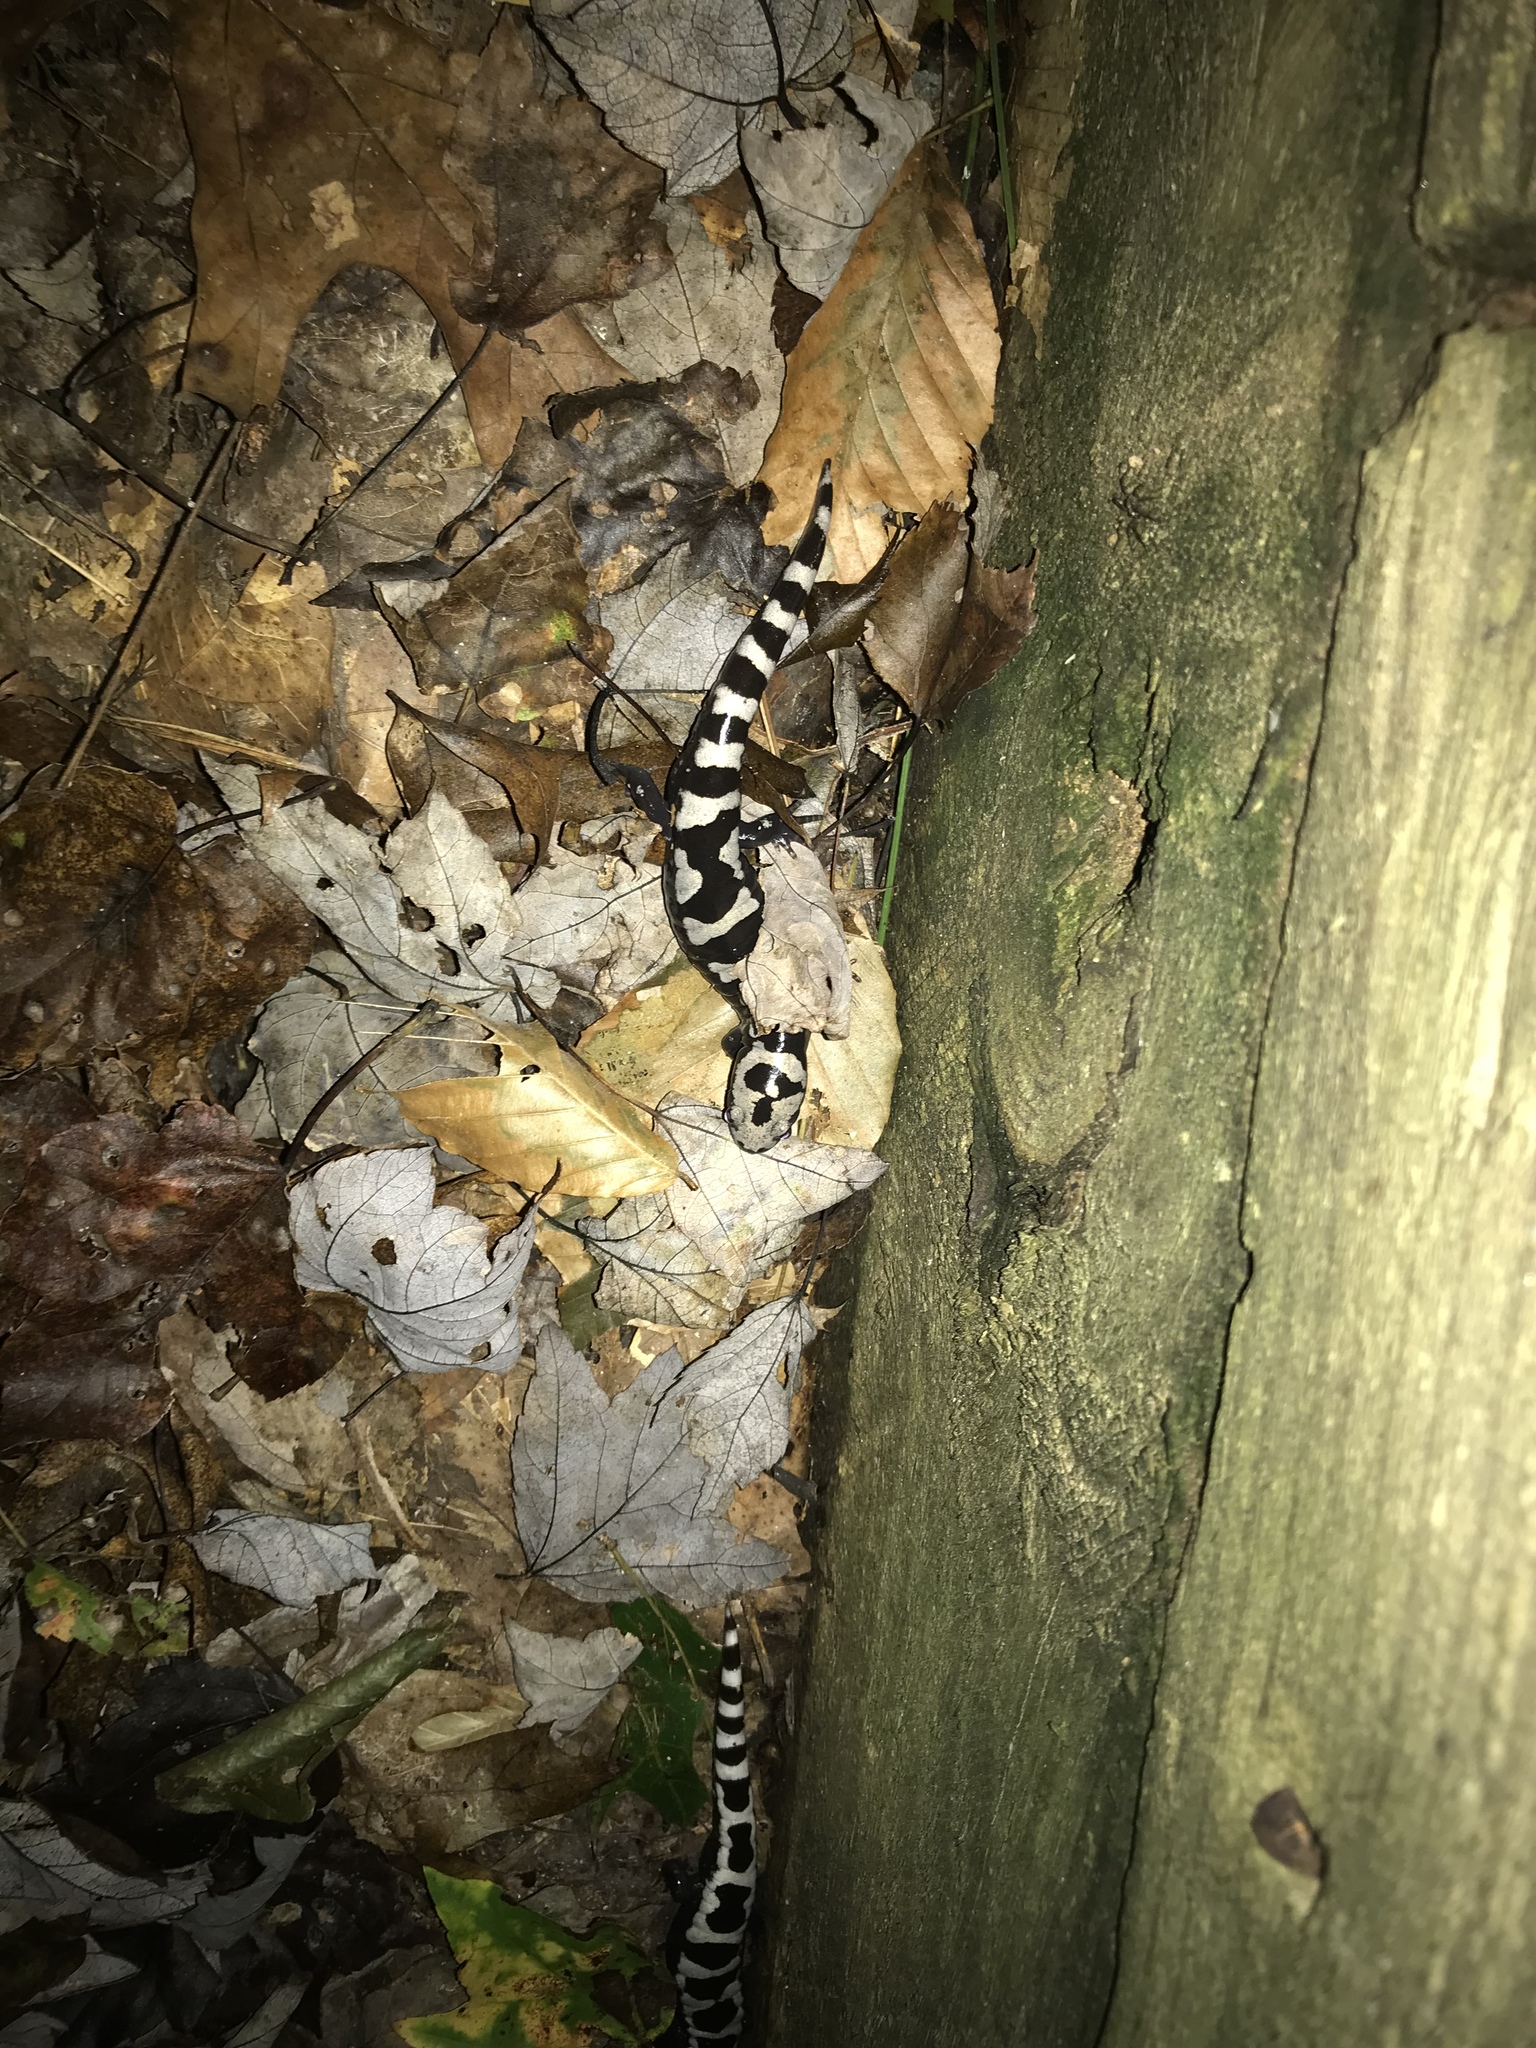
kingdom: Animalia
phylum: Chordata
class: Amphibia
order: Caudata
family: Ambystomatidae
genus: Ambystoma
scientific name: Ambystoma opacum
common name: Marbled salamander
